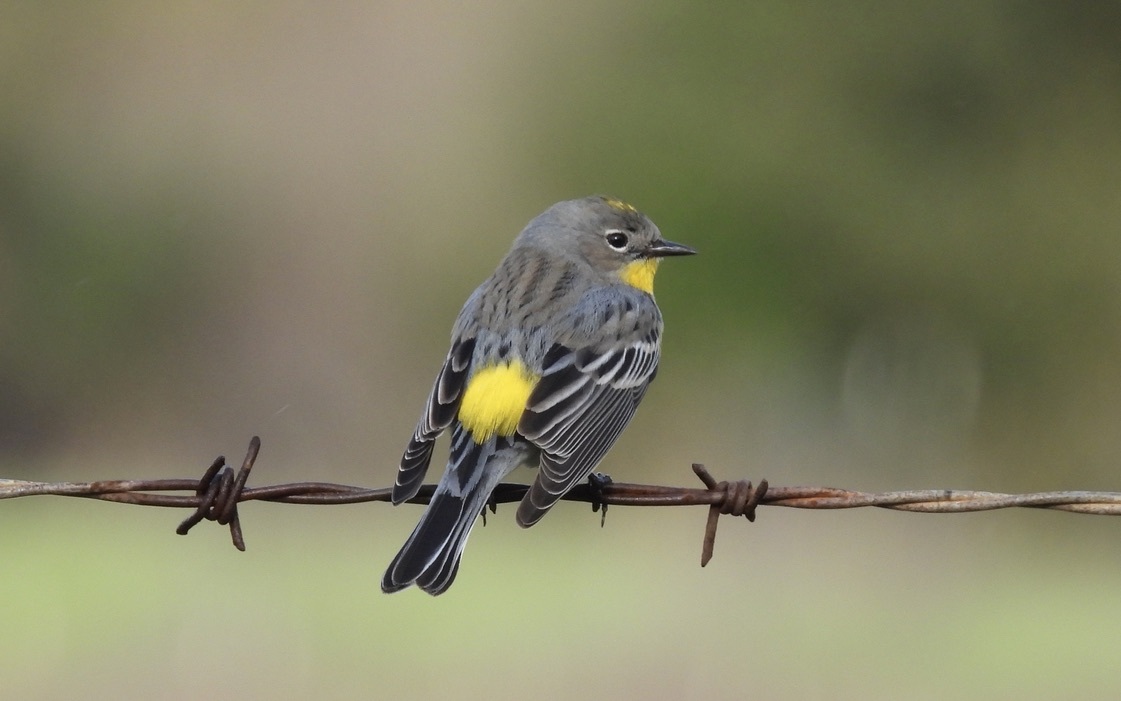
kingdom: Animalia
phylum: Chordata
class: Aves
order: Passeriformes
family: Parulidae
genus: Setophaga
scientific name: Setophaga auduboni
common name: Audubon's warbler
